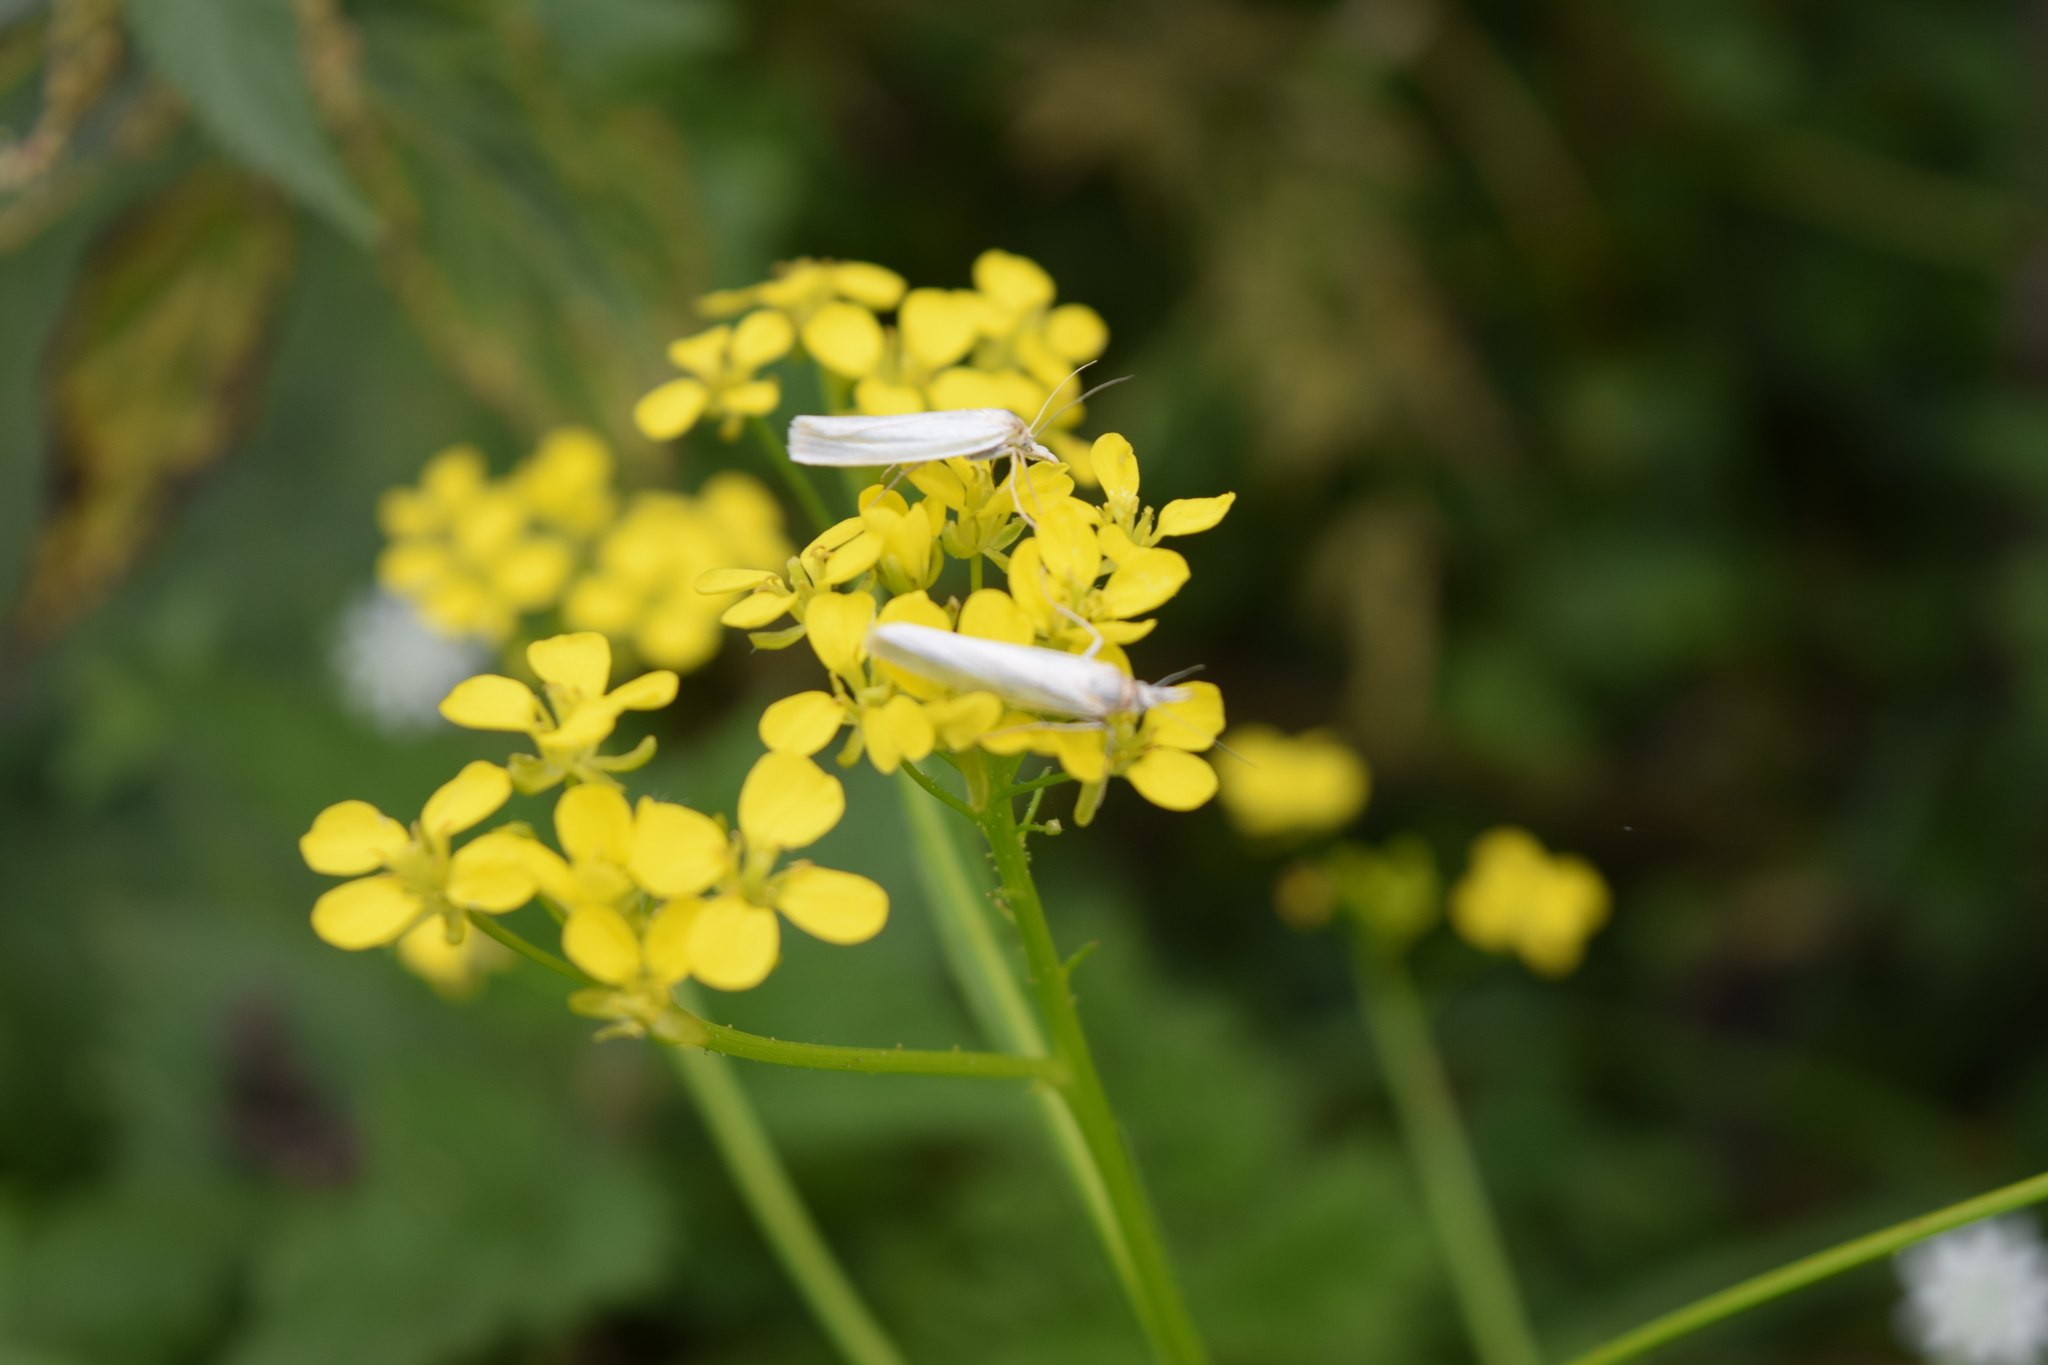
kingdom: Animalia
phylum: Arthropoda
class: Insecta
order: Lepidoptera
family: Crambidae
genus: Crambus
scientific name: Crambus perlellus
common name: Yellow satin veneer
